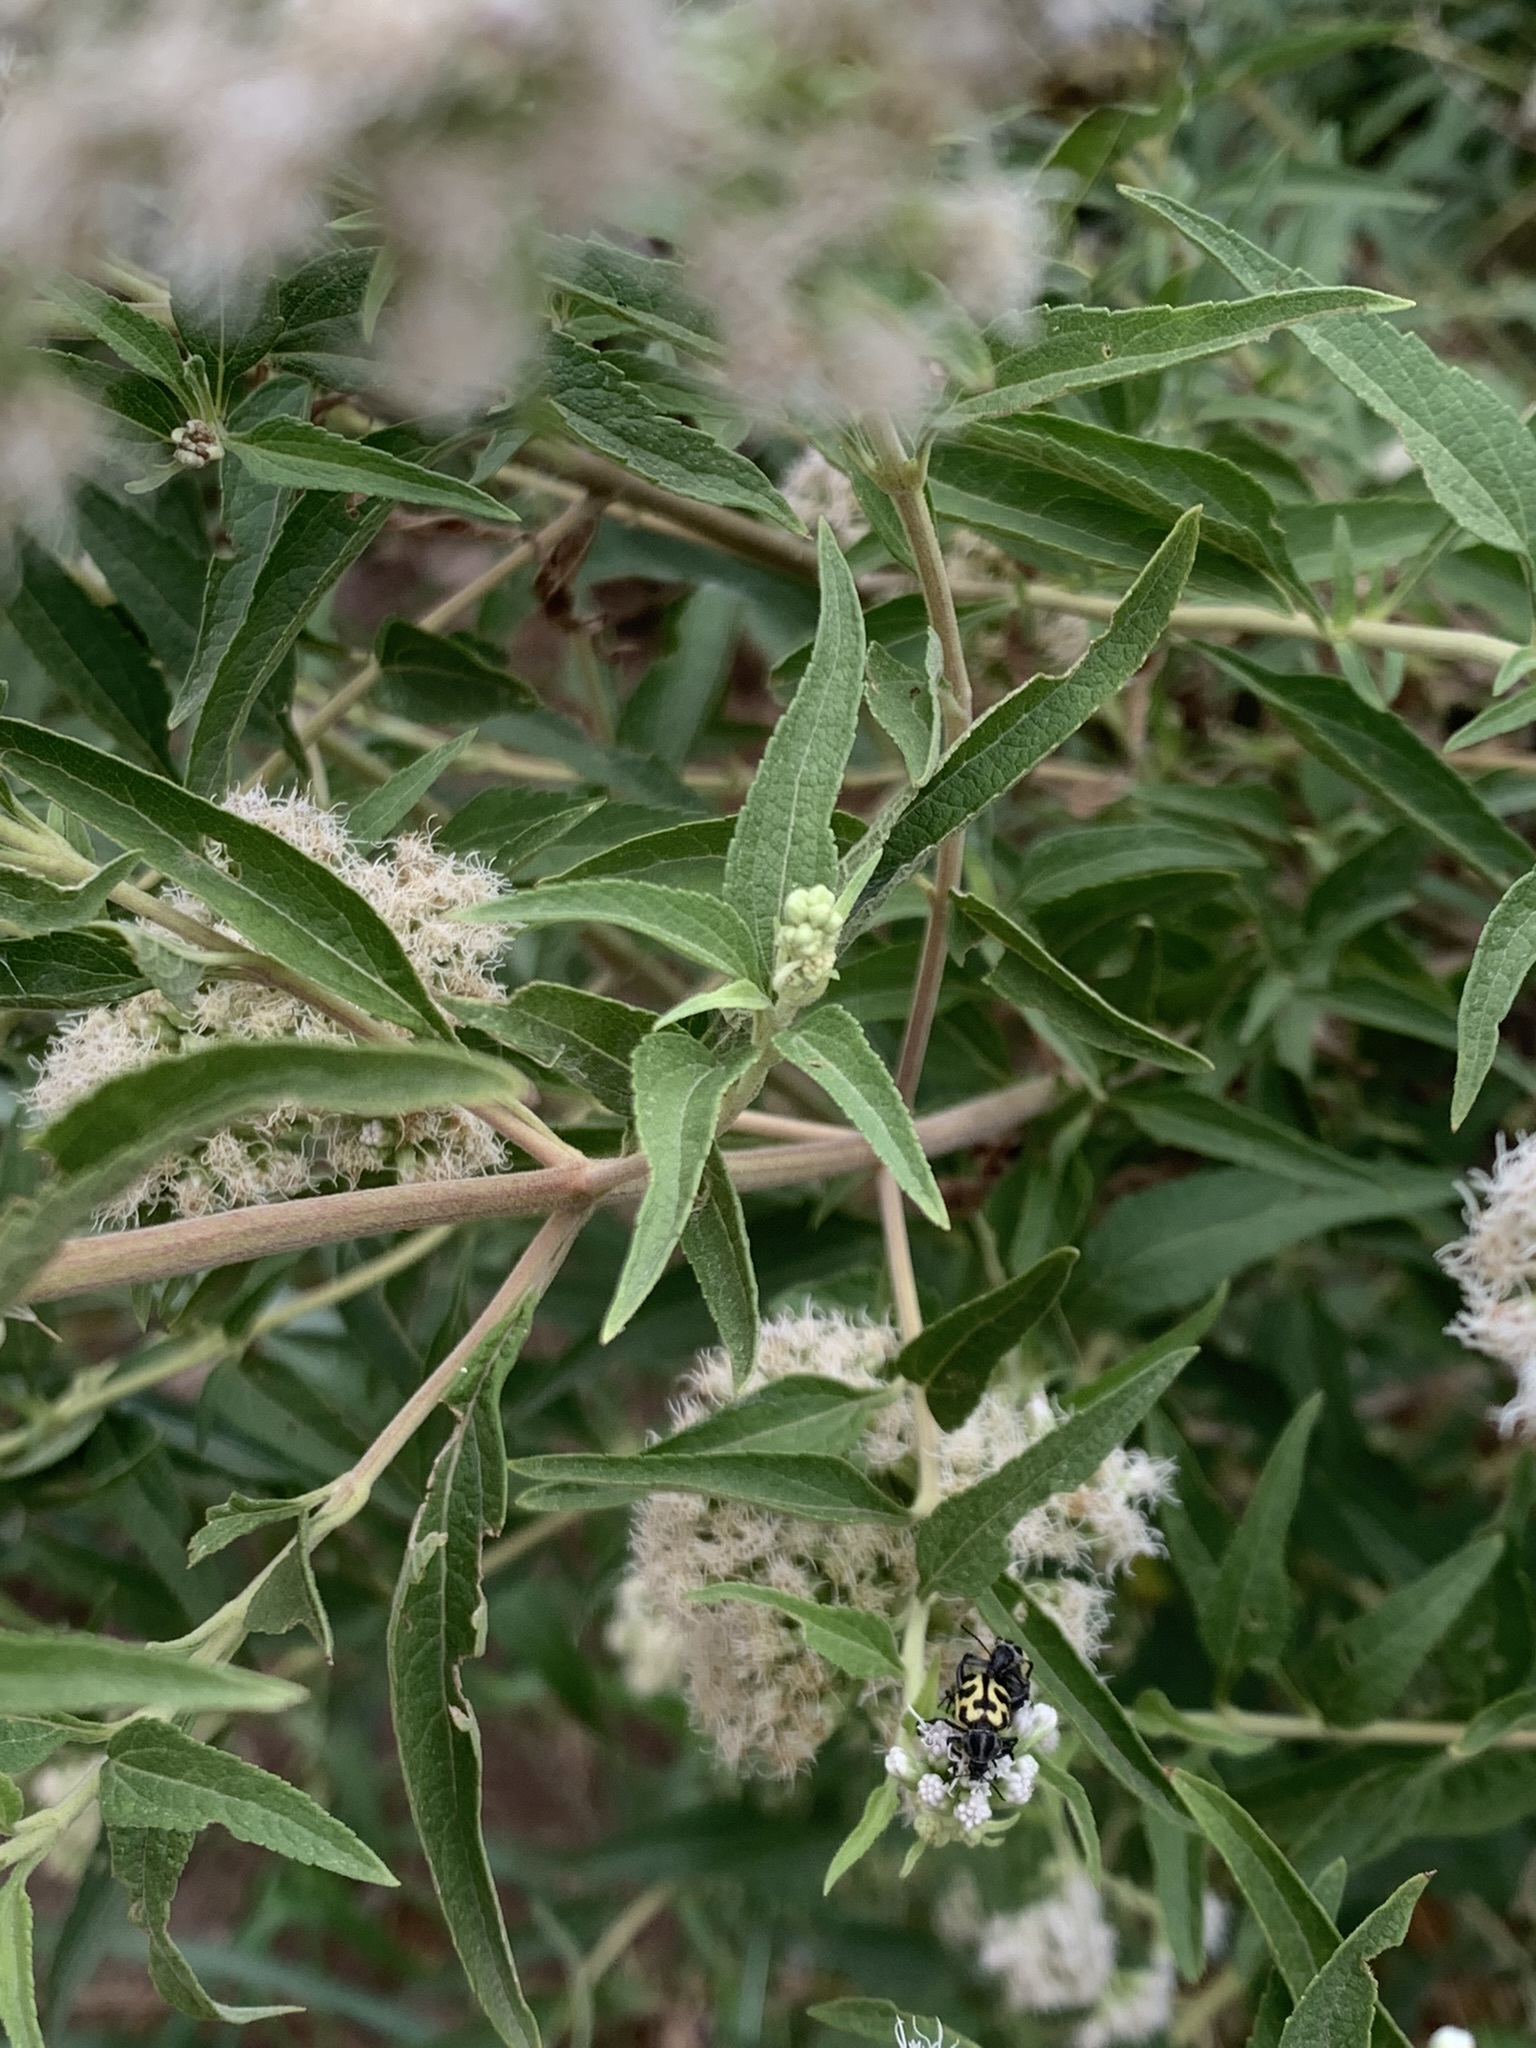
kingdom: Plantae
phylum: Tracheophyta
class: Magnoliopsida
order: Asterales
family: Asteraceae
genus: Austroeupatorium
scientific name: Austroeupatorium inulifolium
